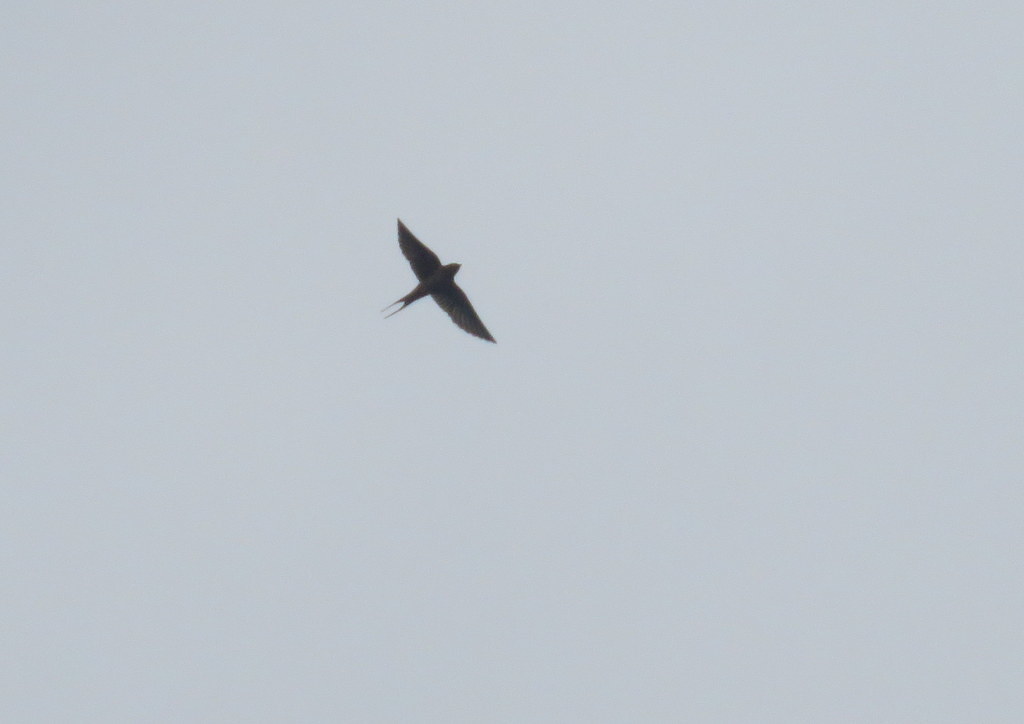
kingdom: Animalia
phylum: Chordata
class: Aves
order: Passeriformes
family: Hirundinidae
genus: Hirundo
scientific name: Hirundo rustica
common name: Barn swallow
